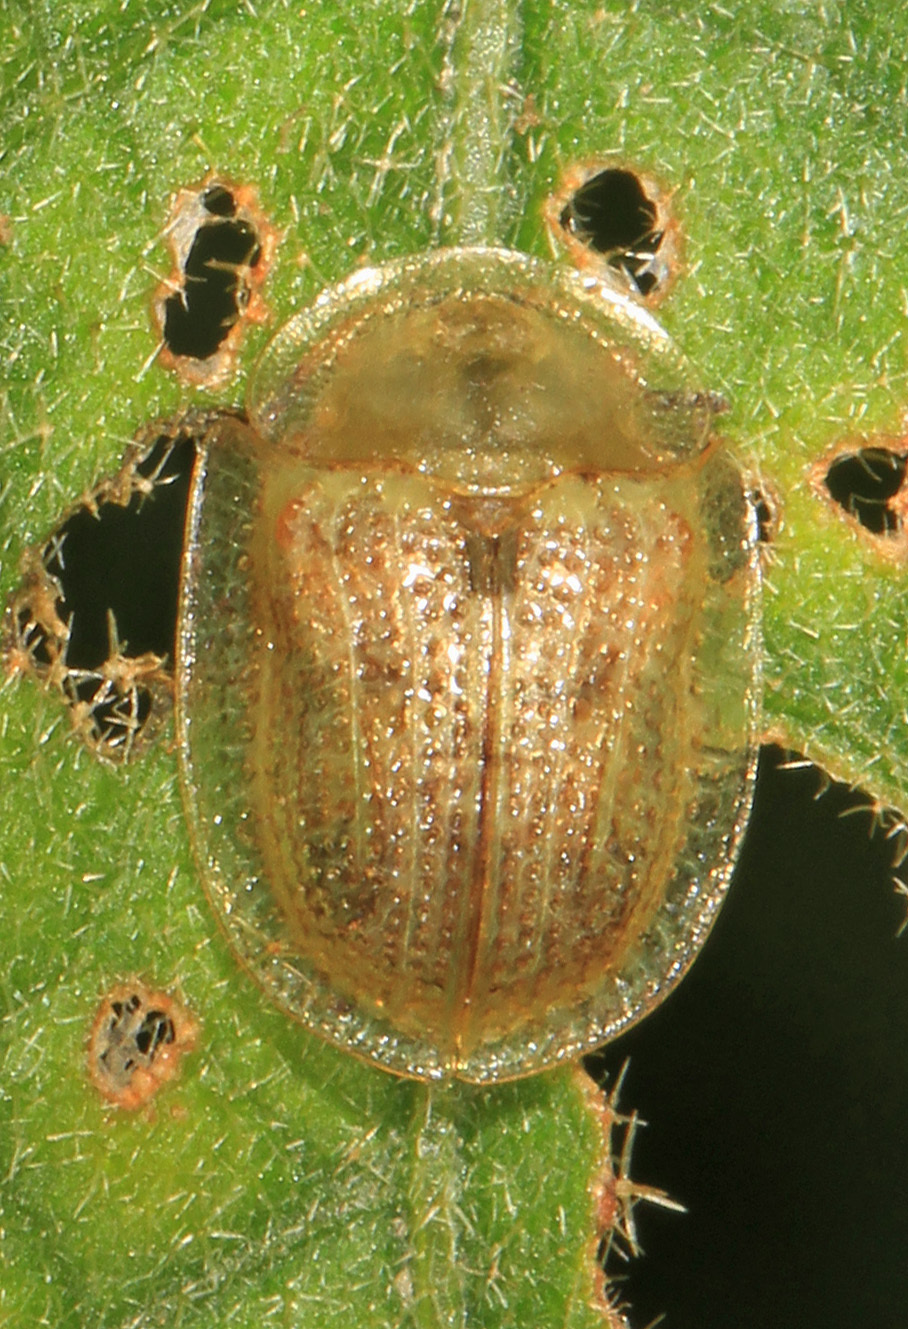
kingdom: Animalia
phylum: Arthropoda
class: Insecta
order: Coleoptera
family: Chrysomelidae
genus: Gratiana
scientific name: Gratiana pallidula
